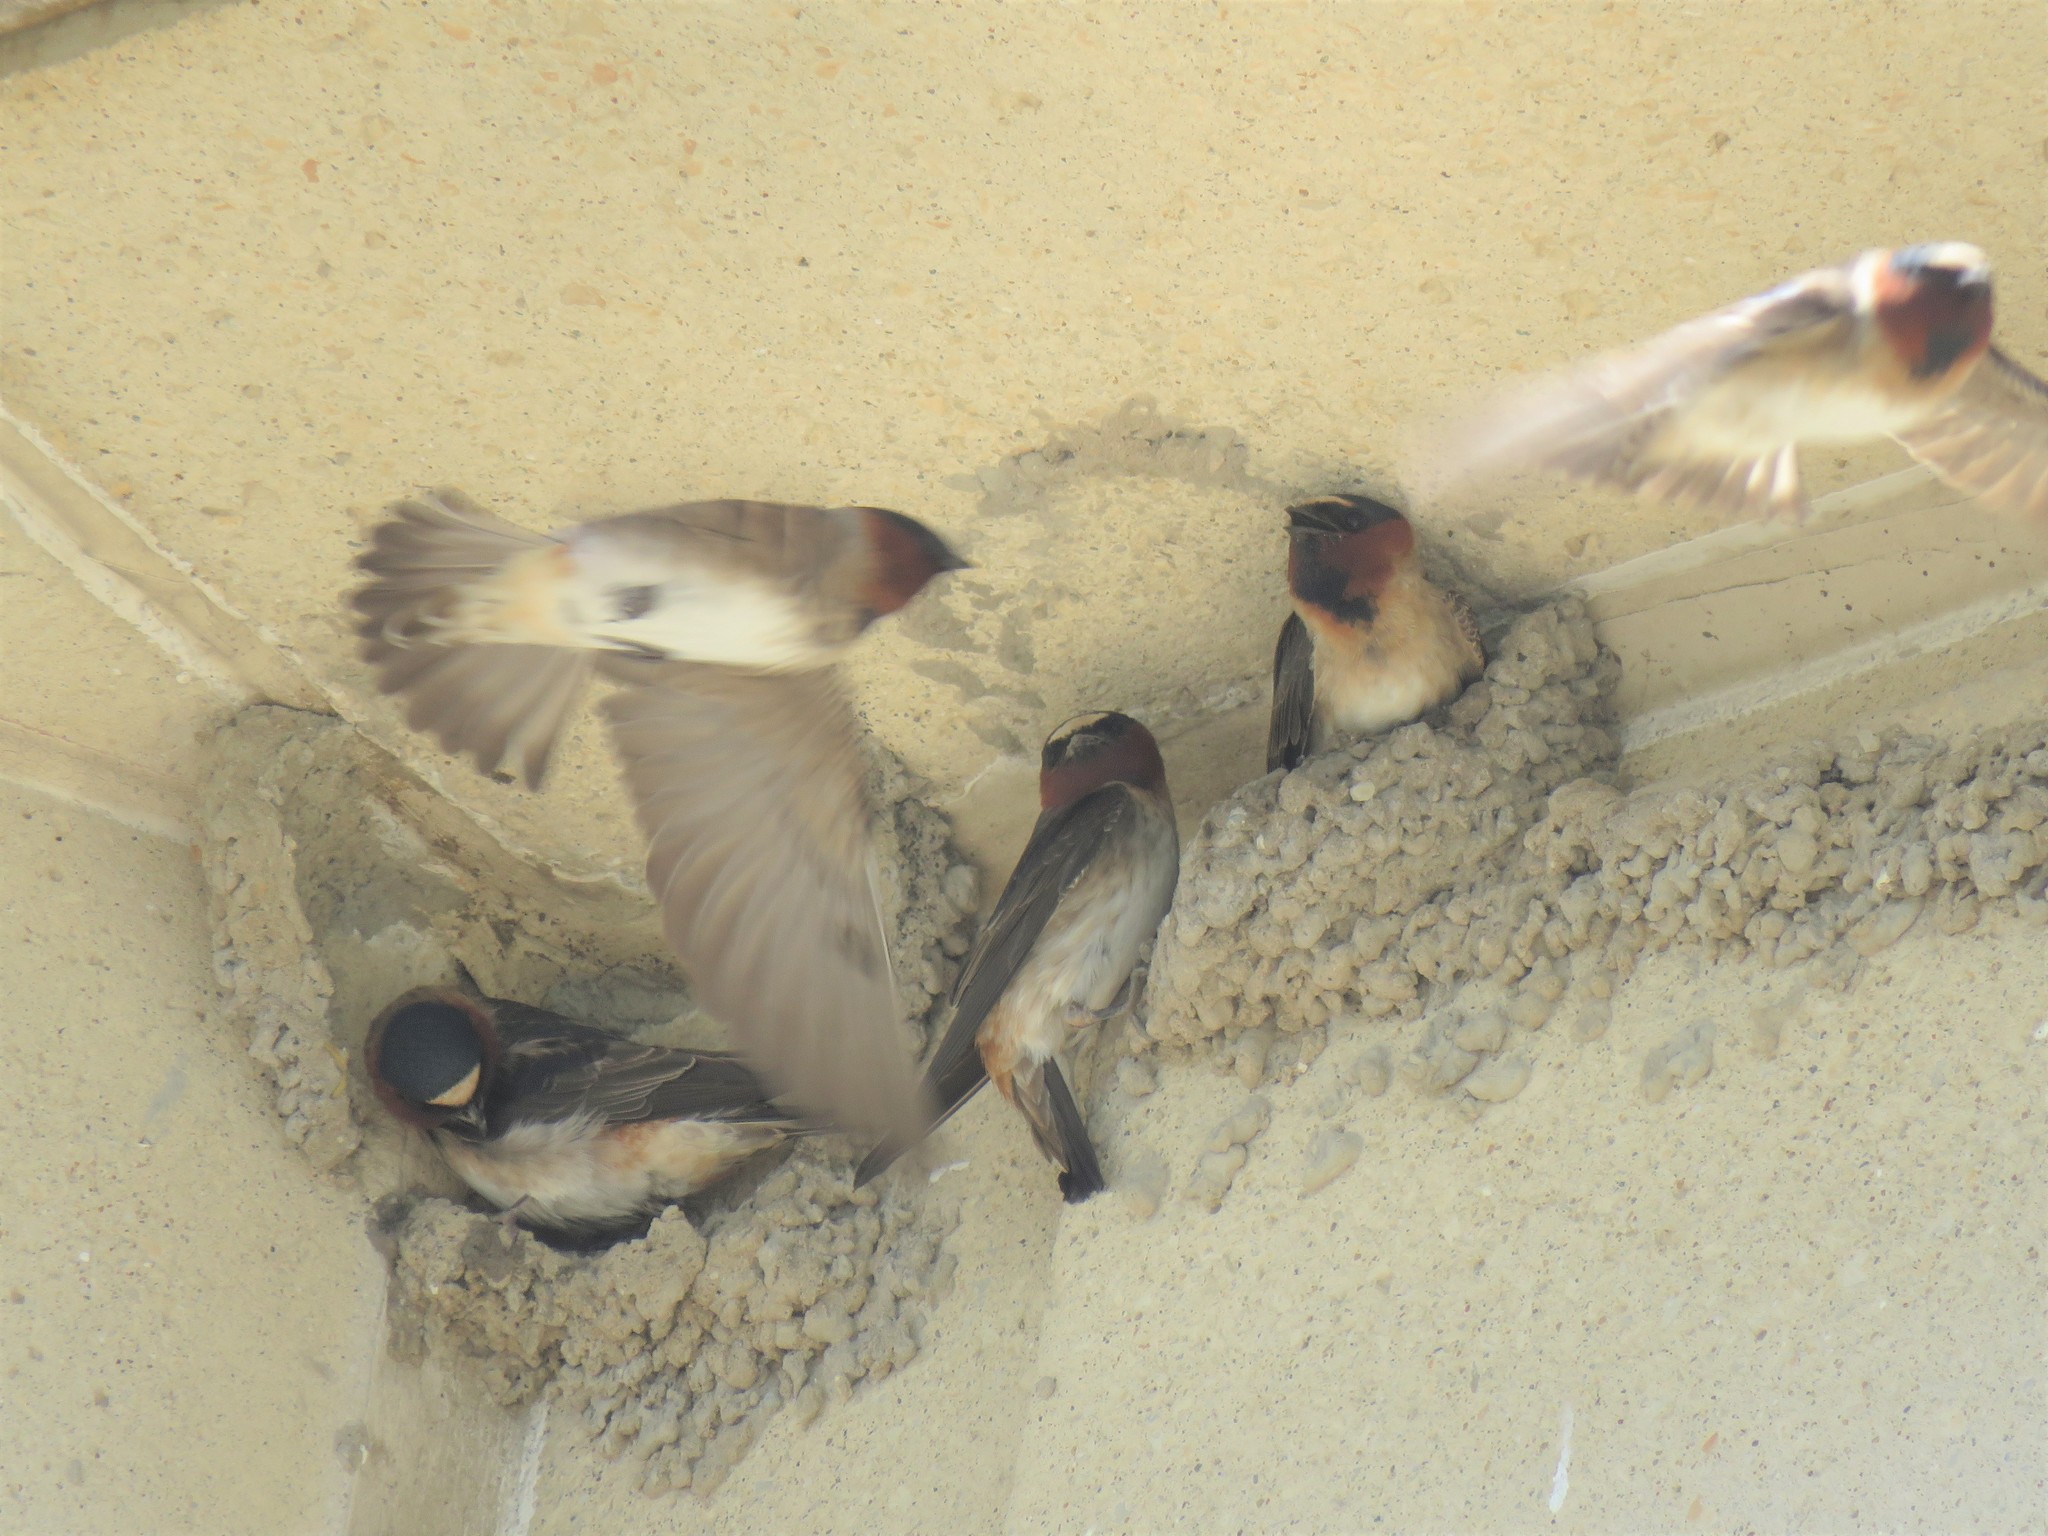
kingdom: Animalia
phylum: Chordata
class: Aves
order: Passeriformes
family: Hirundinidae
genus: Petrochelidon
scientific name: Petrochelidon pyrrhonota
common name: American cliff swallow
